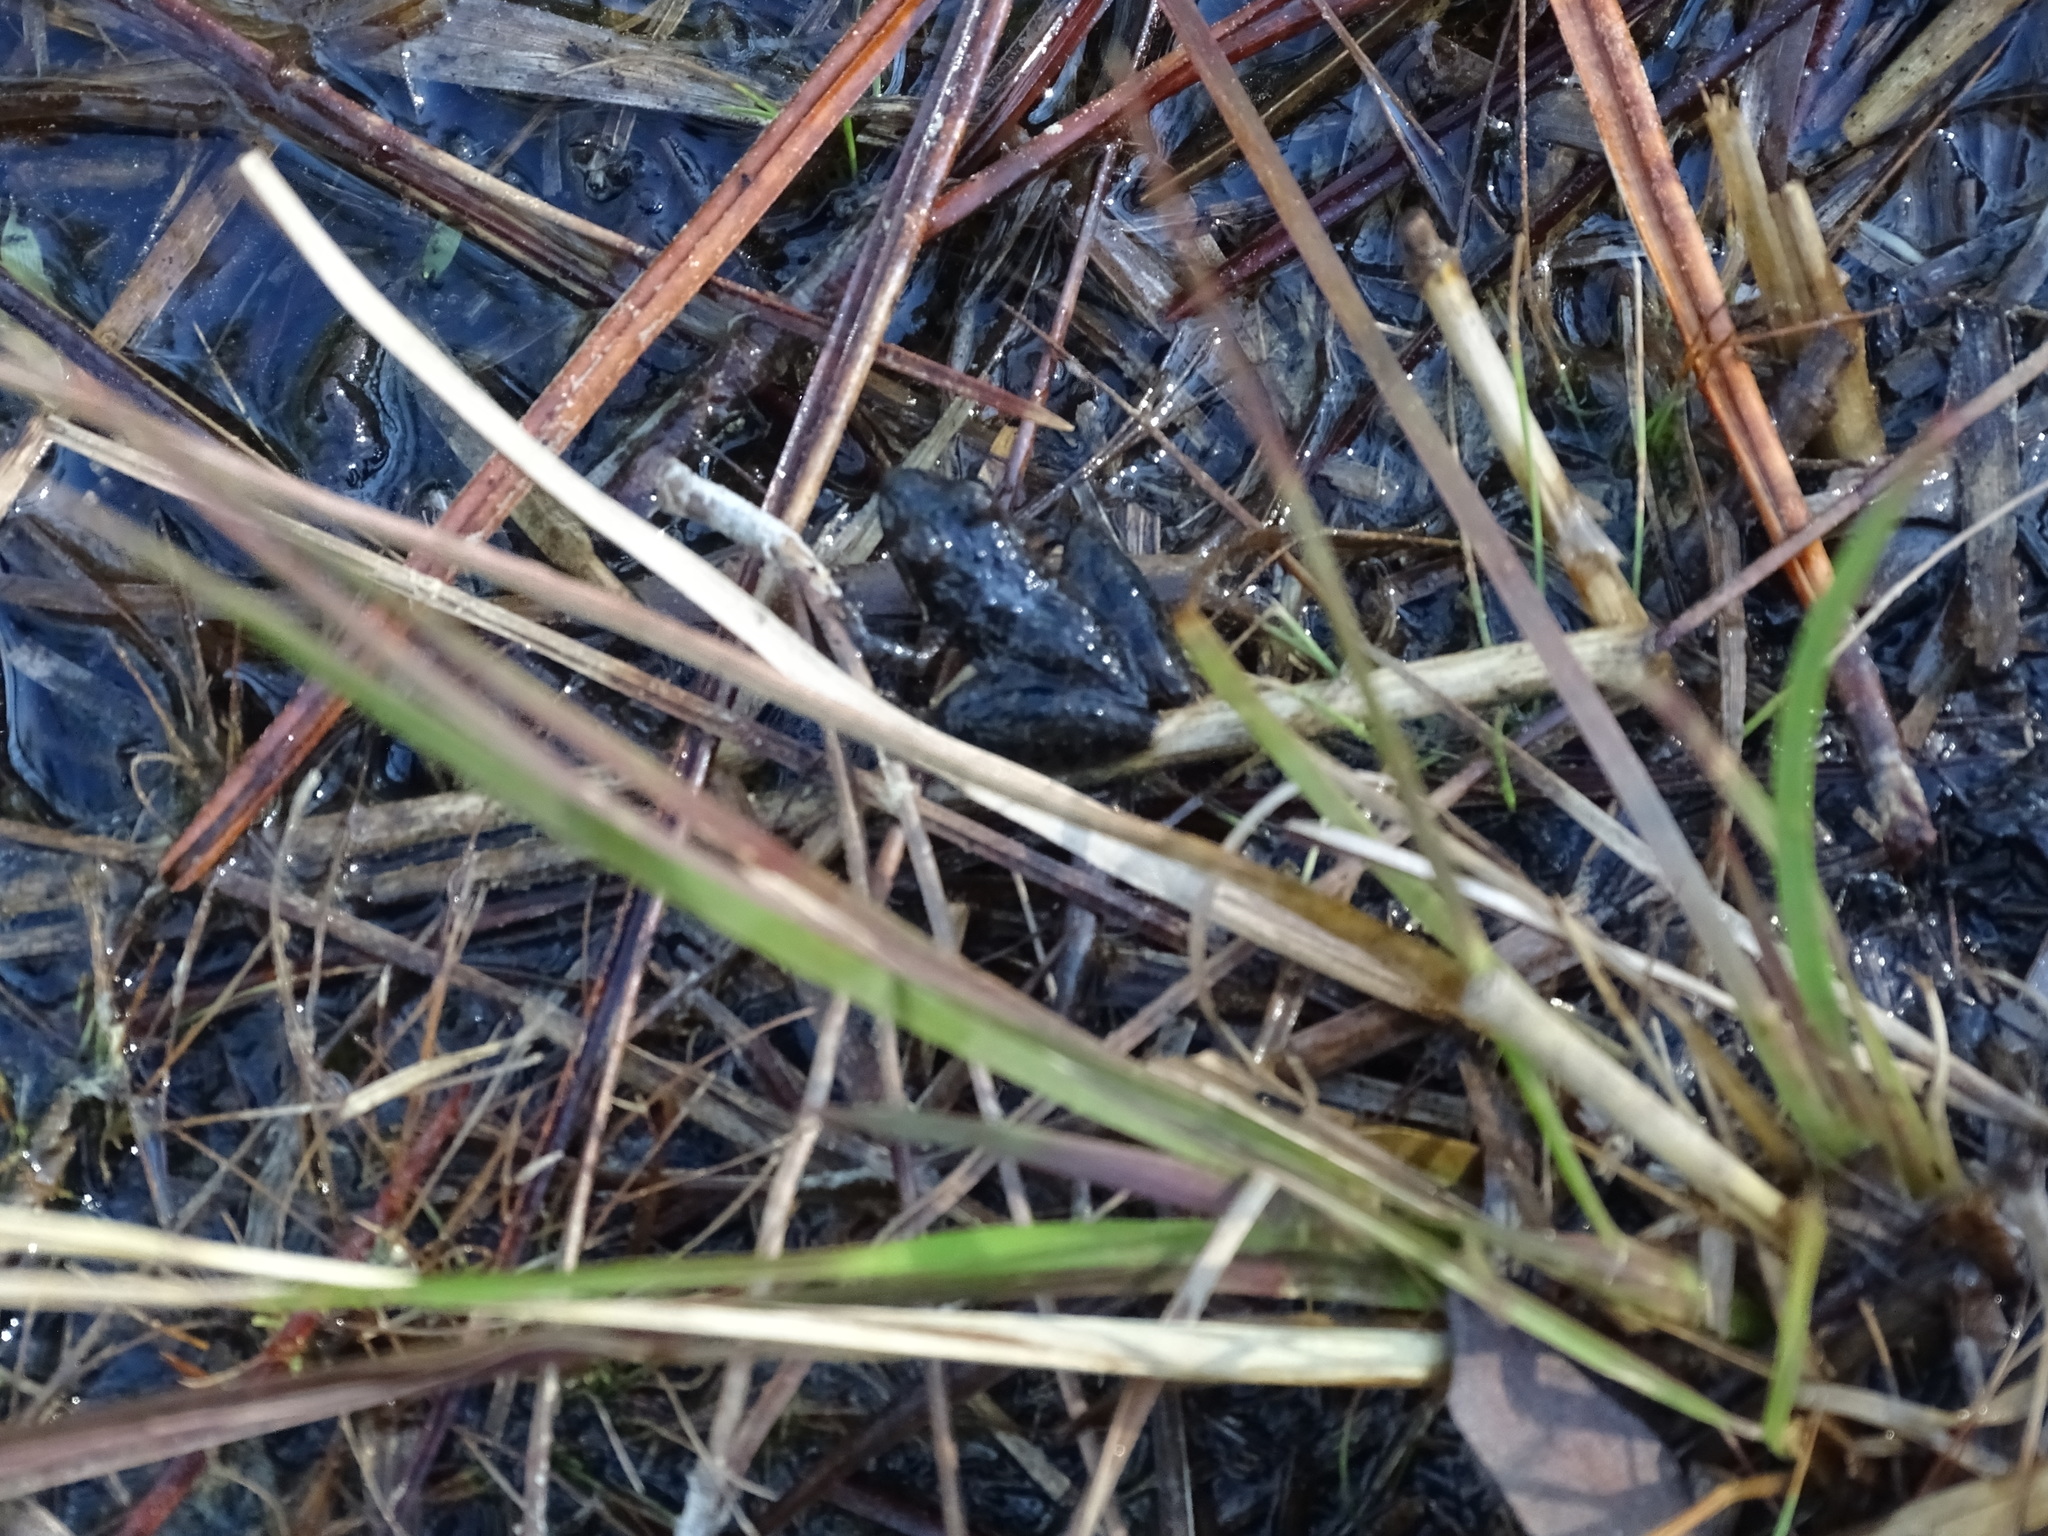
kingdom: Animalia
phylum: Chordata
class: Amphibia
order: Anura
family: Hylidae
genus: Acris
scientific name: Acris gryllus
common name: Southern cricket frog
